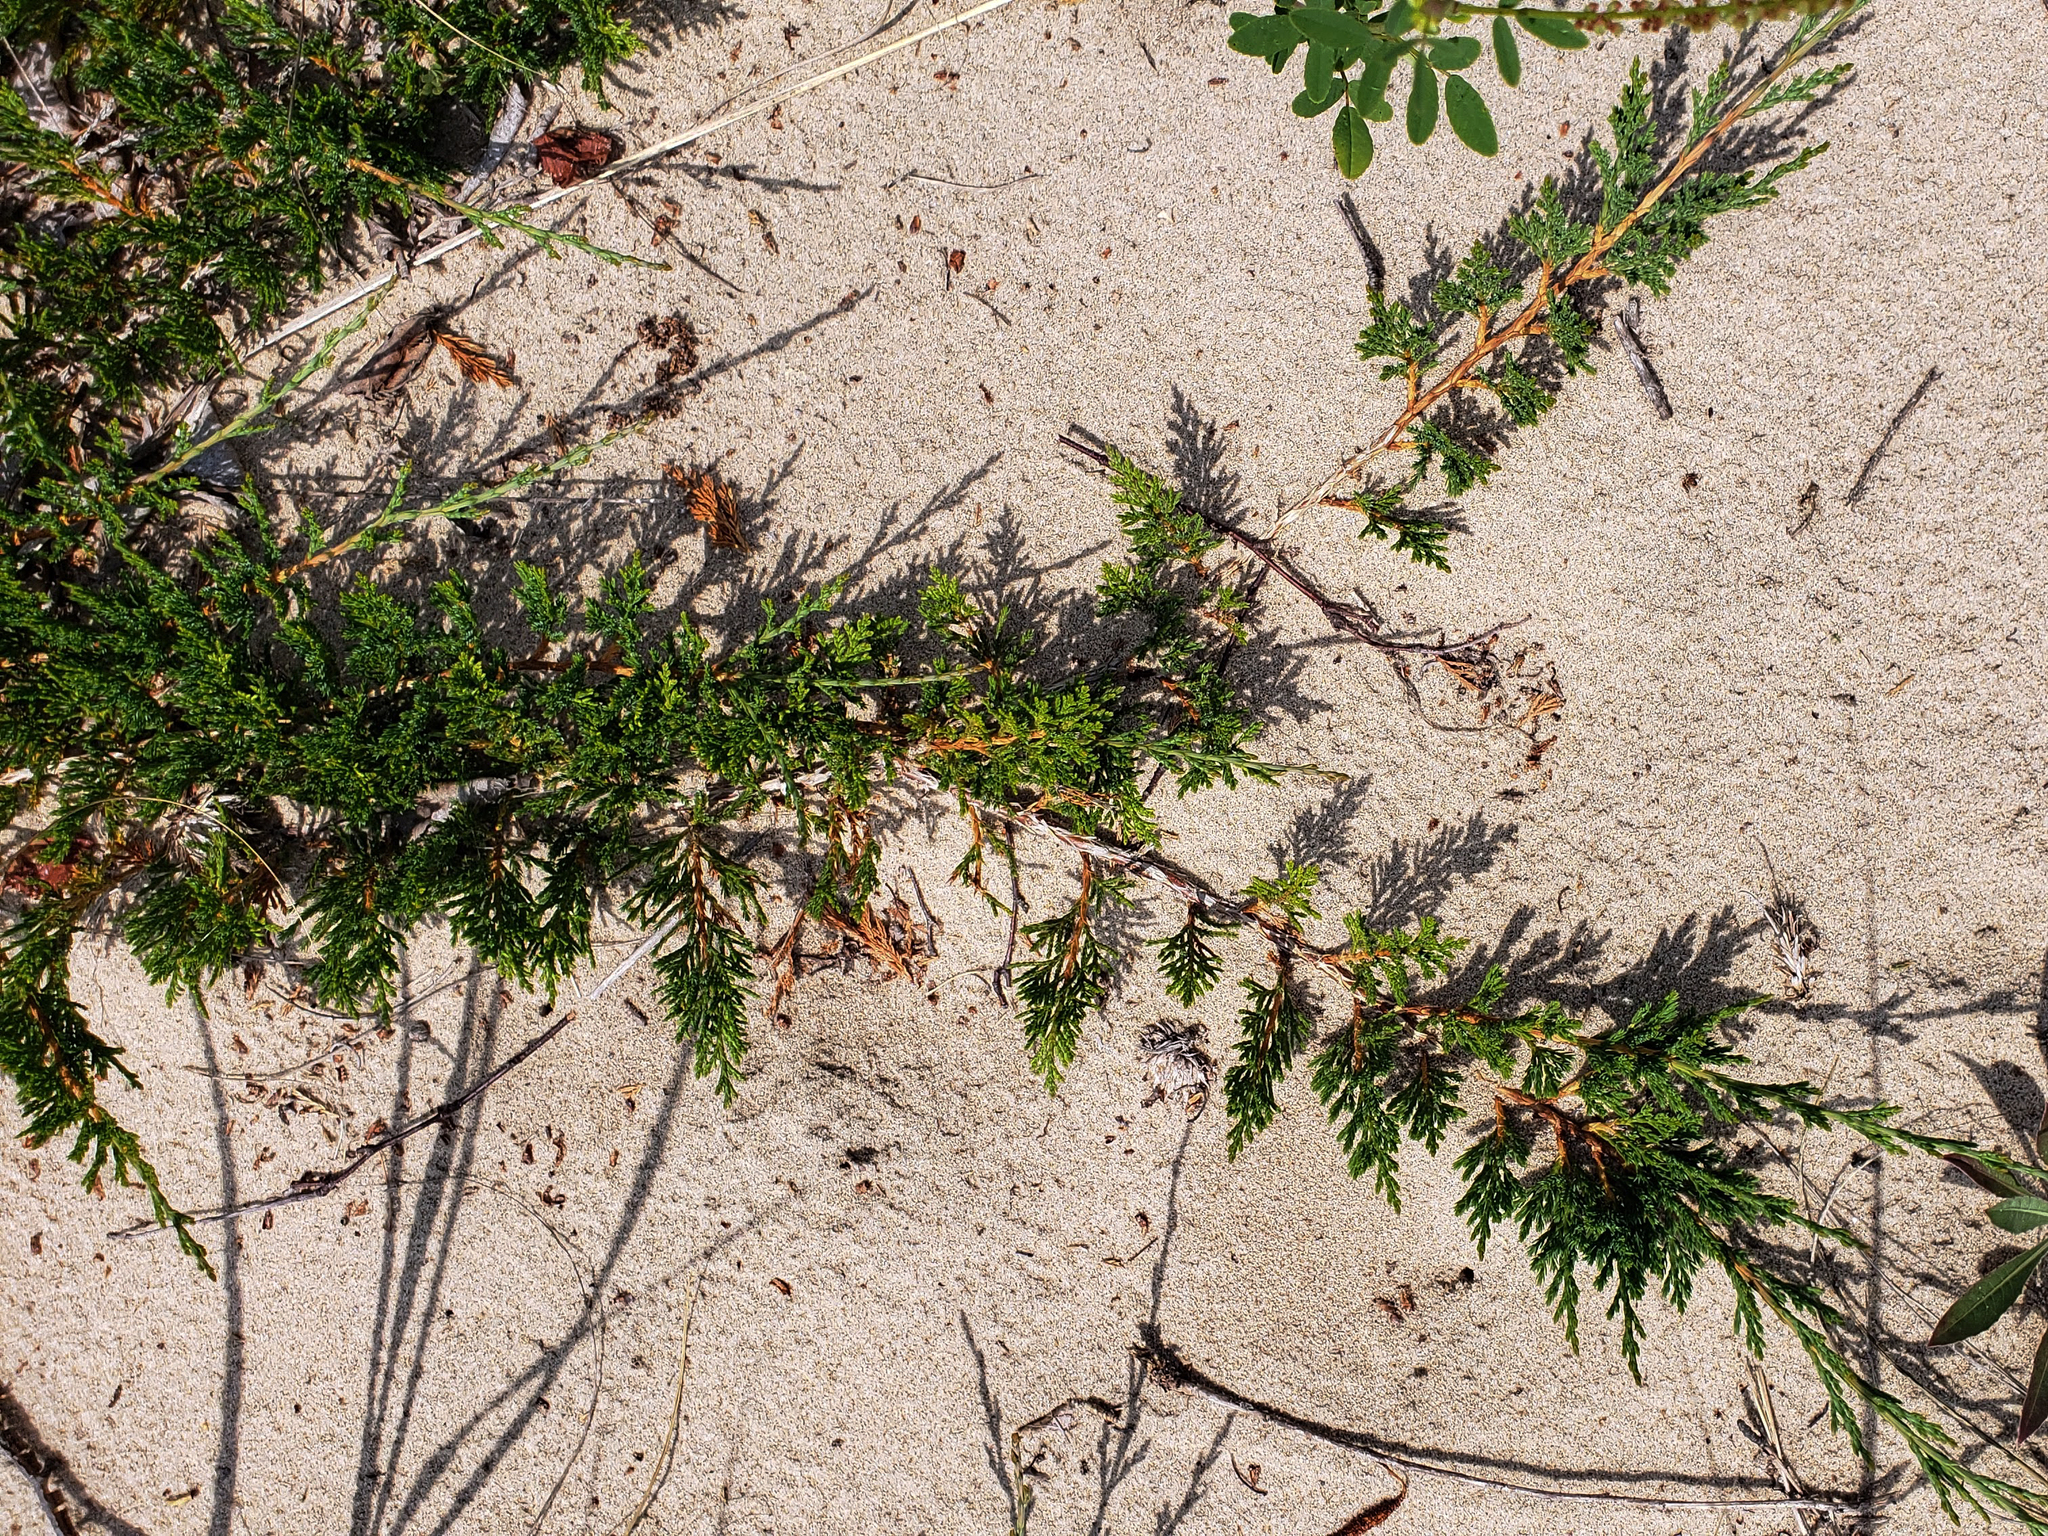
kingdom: Plantae
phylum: Tracheophyta
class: Pinopsida
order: Pinales
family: Cupressaceae
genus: Juniperus
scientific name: Juniperus horizontalis
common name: Creeping juniper
